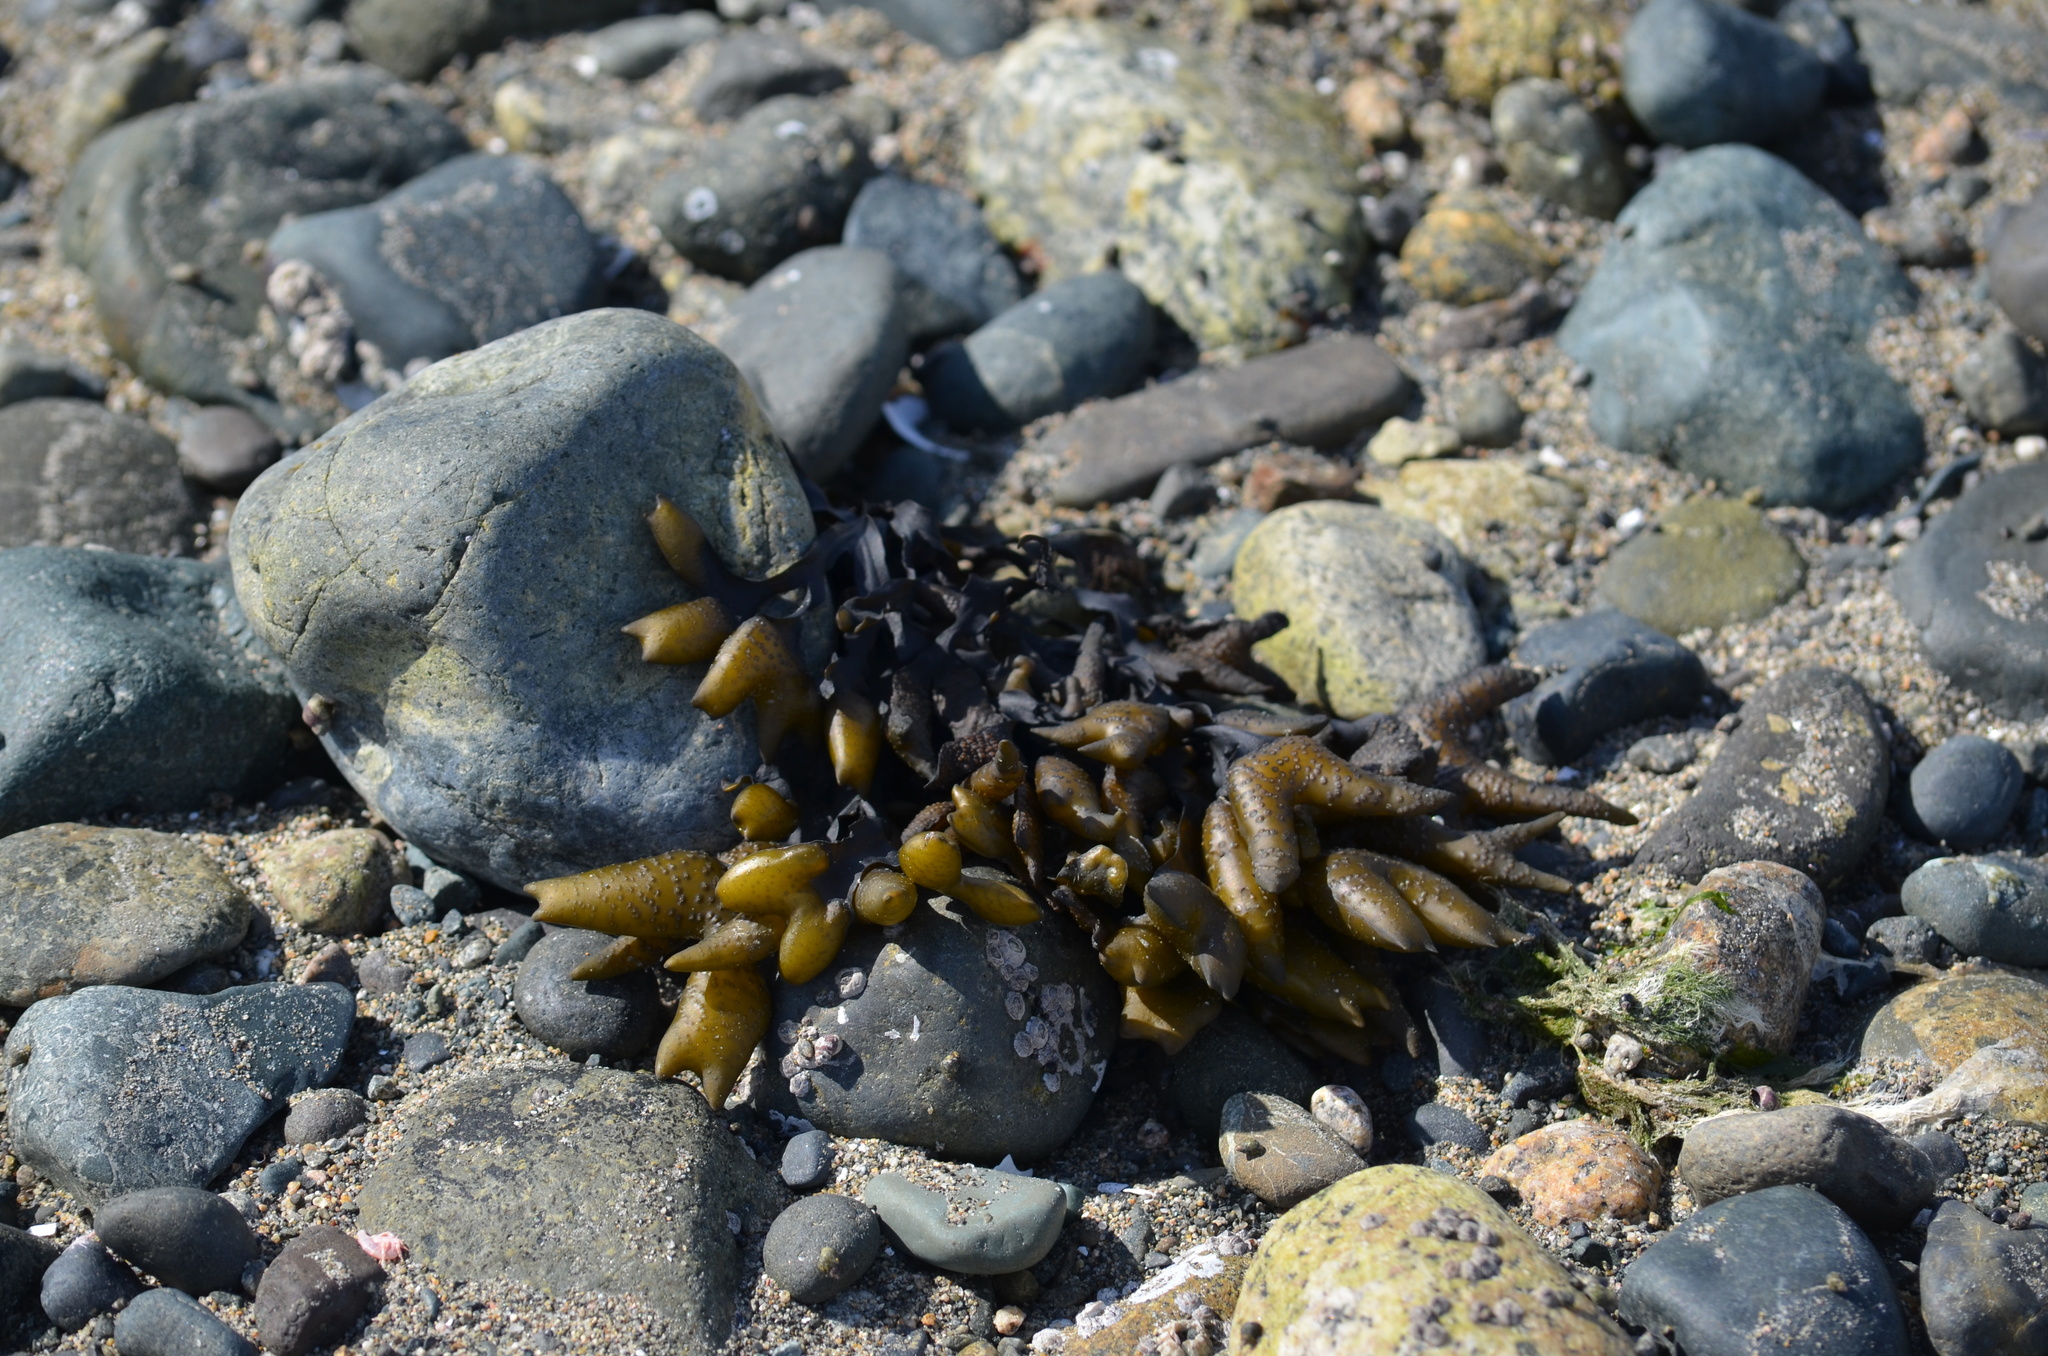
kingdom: Chromista
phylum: Ochrophyta
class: Phaeophyceae
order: Fucales
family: Fucaceae
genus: Fucus
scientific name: Fucus distichus
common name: Rockweed
